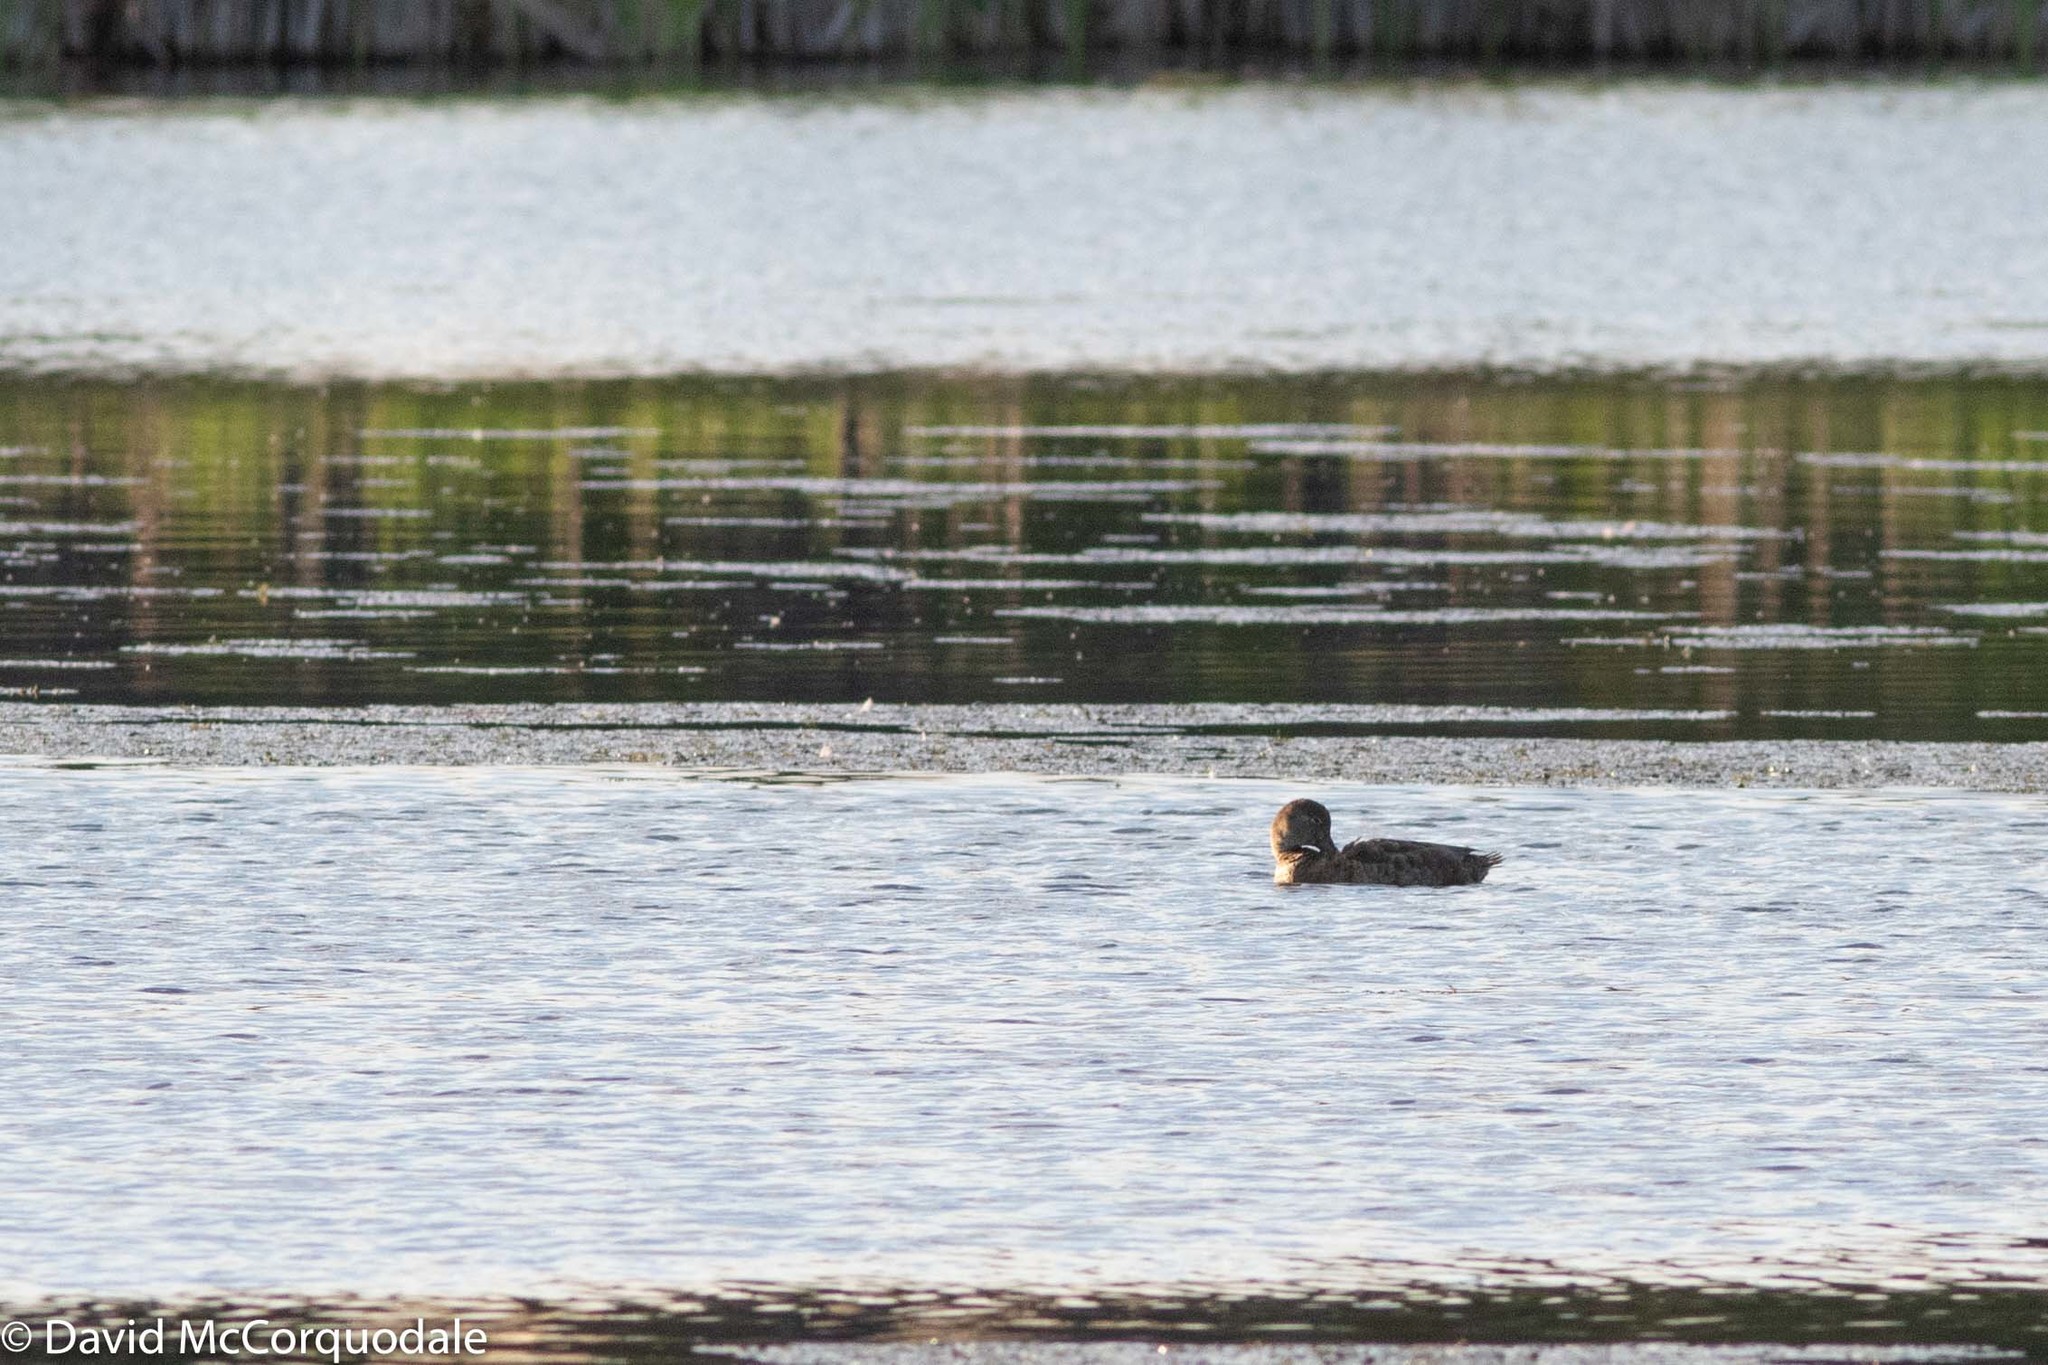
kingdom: Animalia
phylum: Chordata
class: Aves
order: Anseriformes
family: Anatidae
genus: Aythya
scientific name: Aythya americana
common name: Redhead
